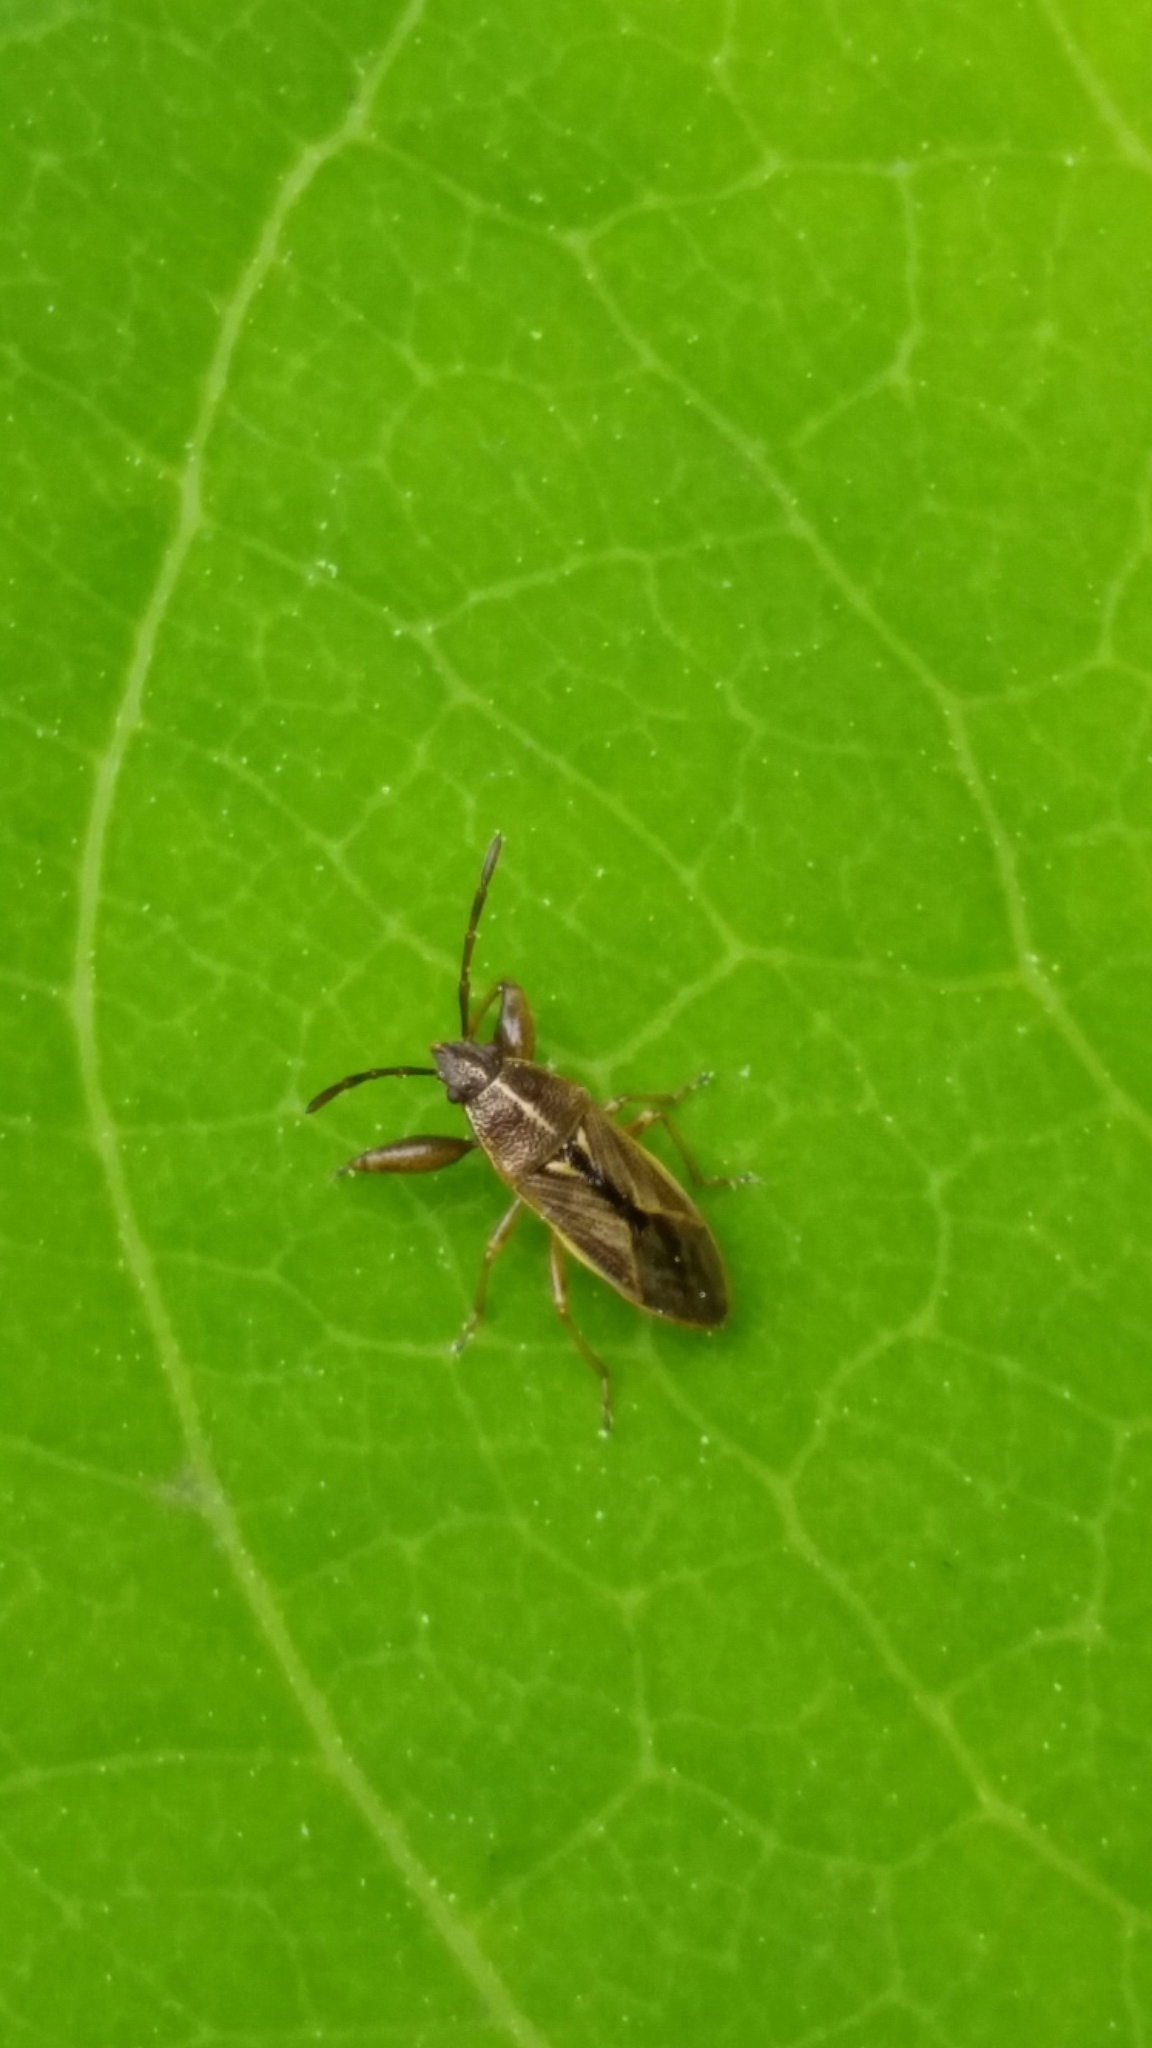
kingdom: Animalia
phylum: Arthropoda
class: Insecta
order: Hemiptera
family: Pachygronthidae
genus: Oedancala
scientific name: Oedancala dorsalis
